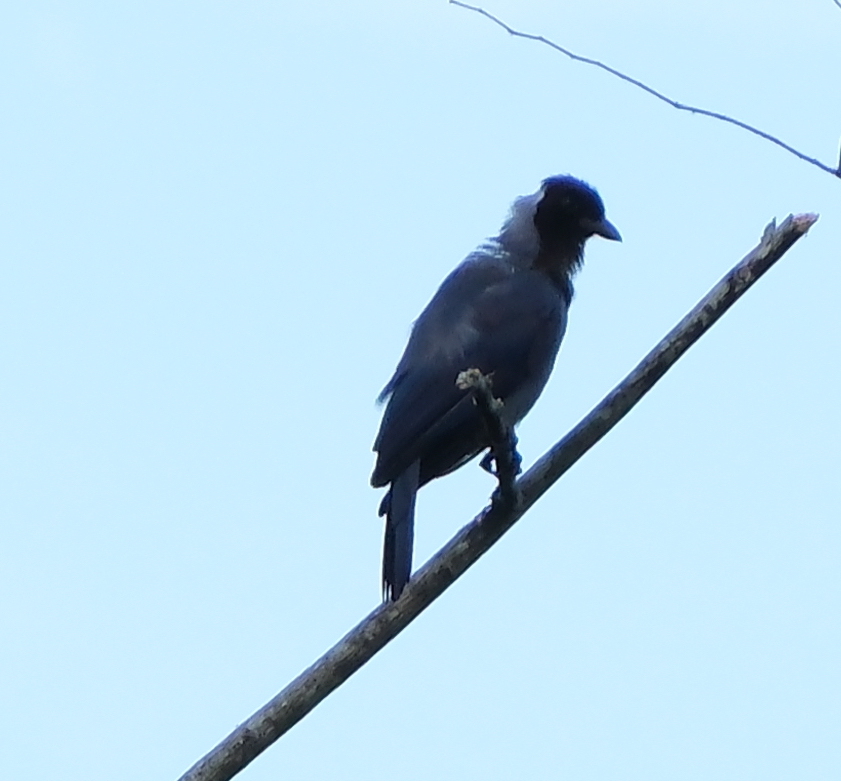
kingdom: Animalia
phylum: Chordata
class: Aves
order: Passeriformes
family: Corvidae
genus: Cyanocorax
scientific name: Cyanocorax violaceus
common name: Violaceous jay
